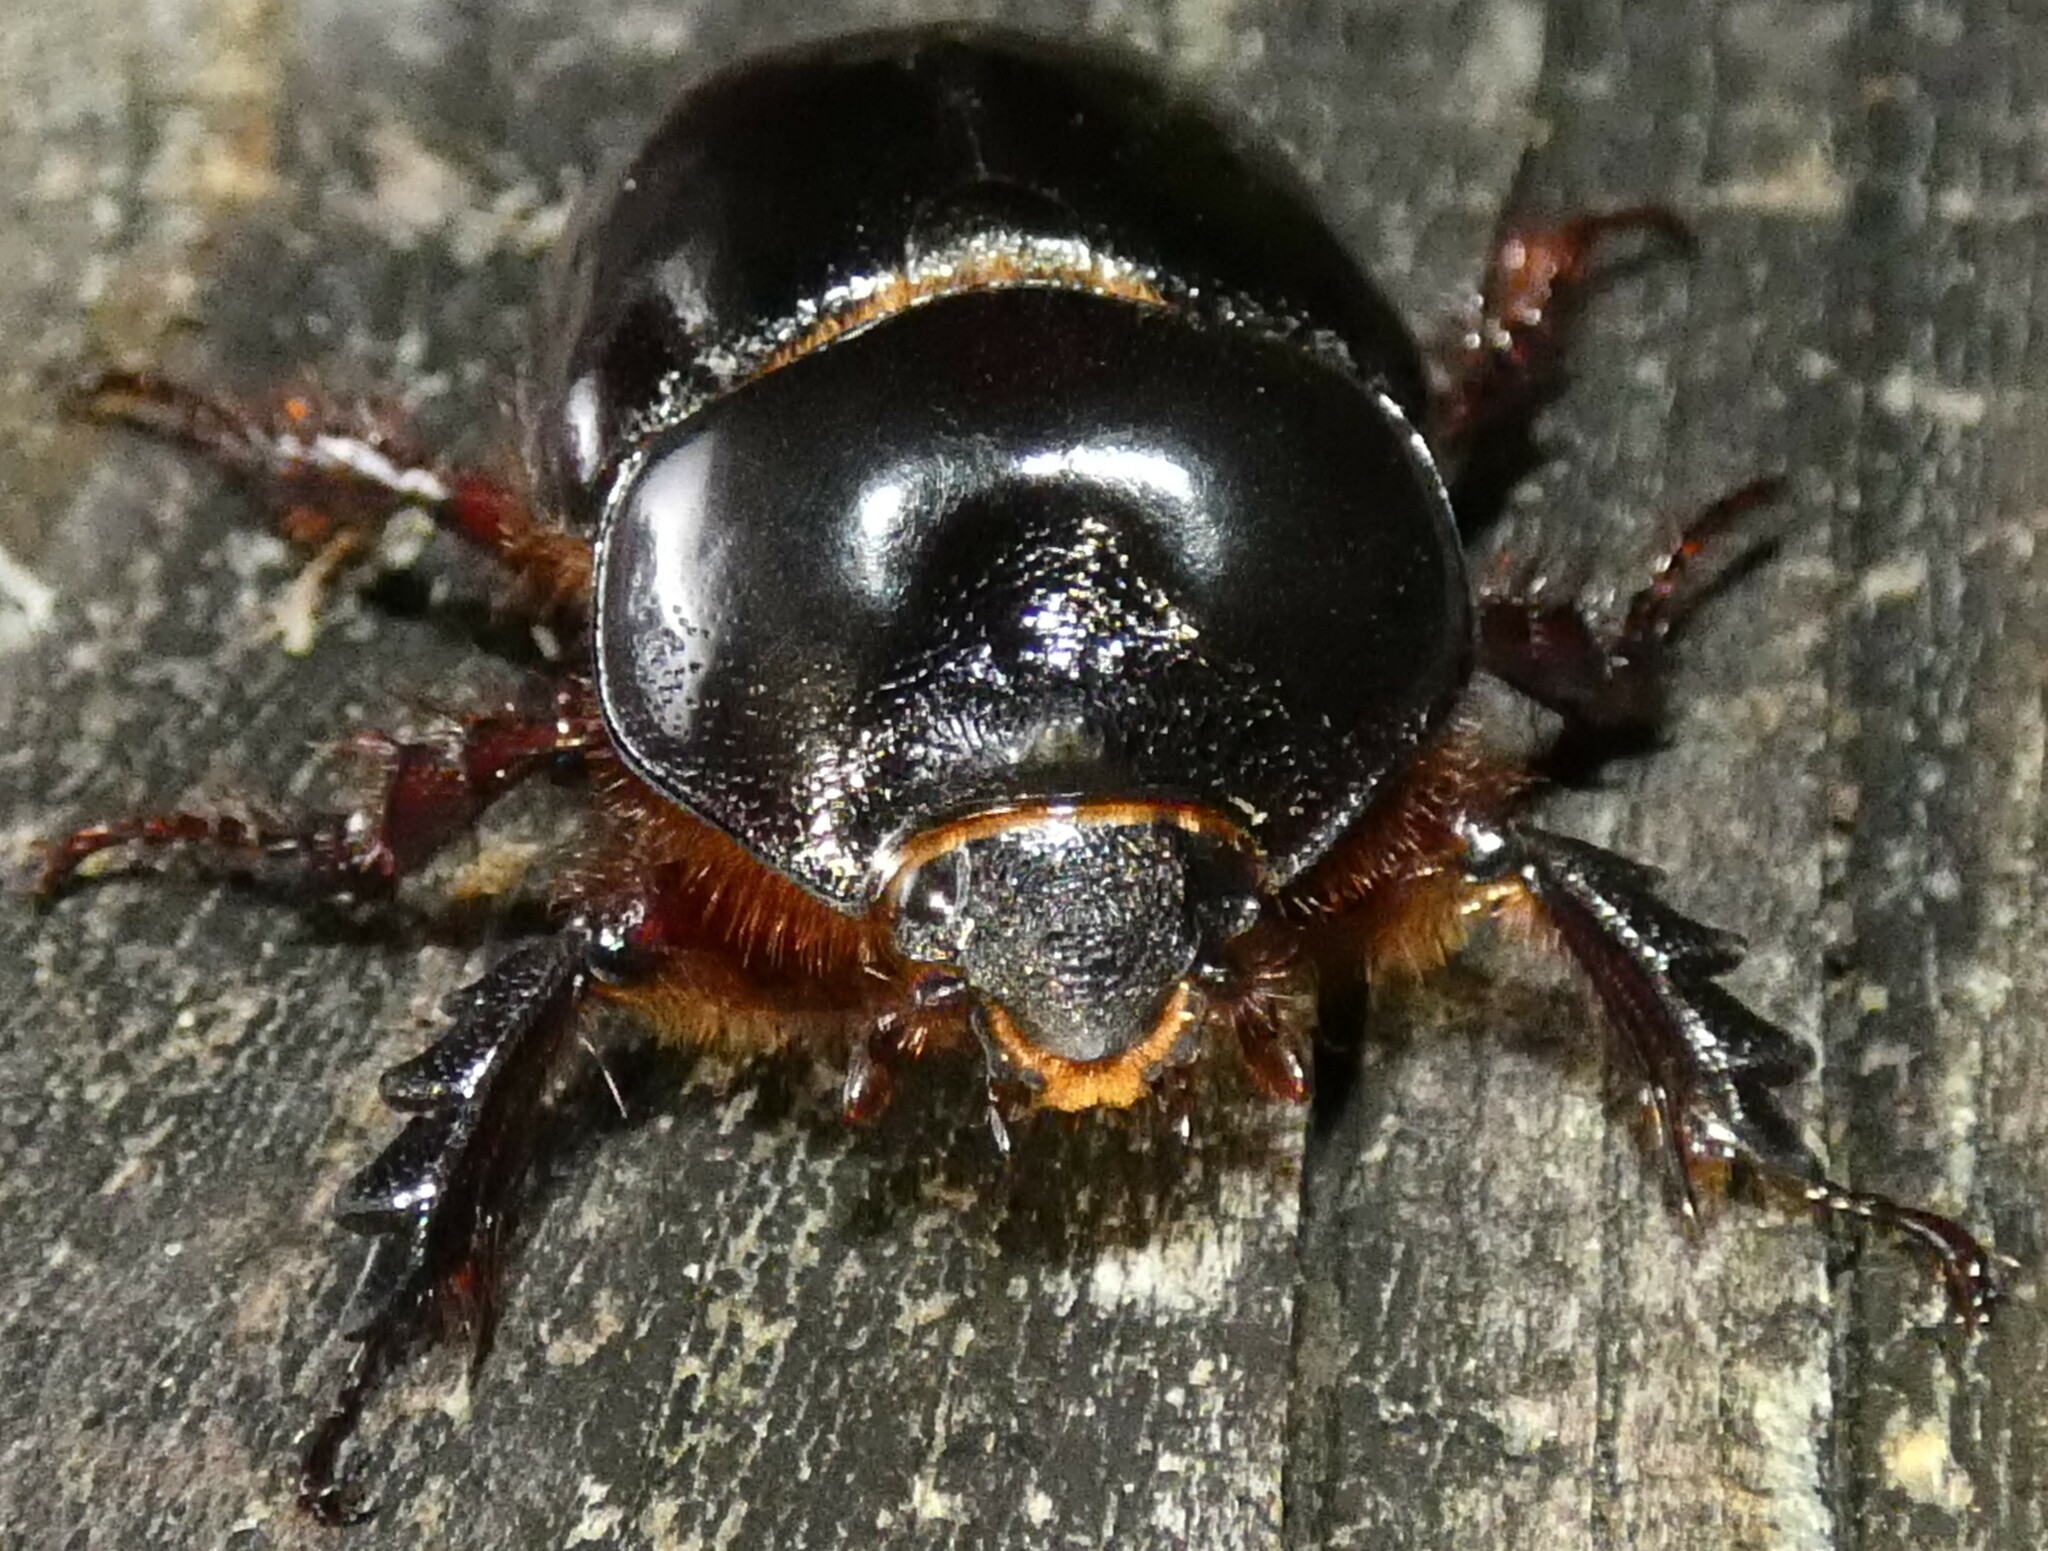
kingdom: Animalia
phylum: Arthropoda
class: Insecta
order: Coleoptera
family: Scarabaeidae
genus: Strategus
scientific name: Strategus antaeus
